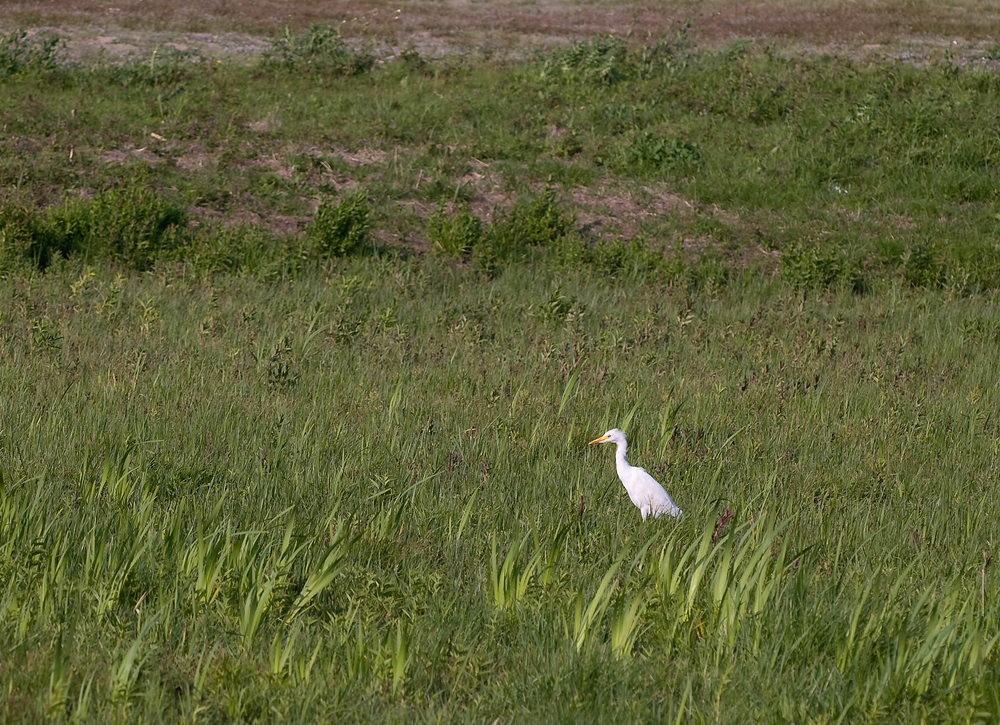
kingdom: Animalia
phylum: Chordata
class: Aves
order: Pelecaniformes
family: Ardeidae
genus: Bubulcus
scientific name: Bubulcus ibis
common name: Cattle egret
